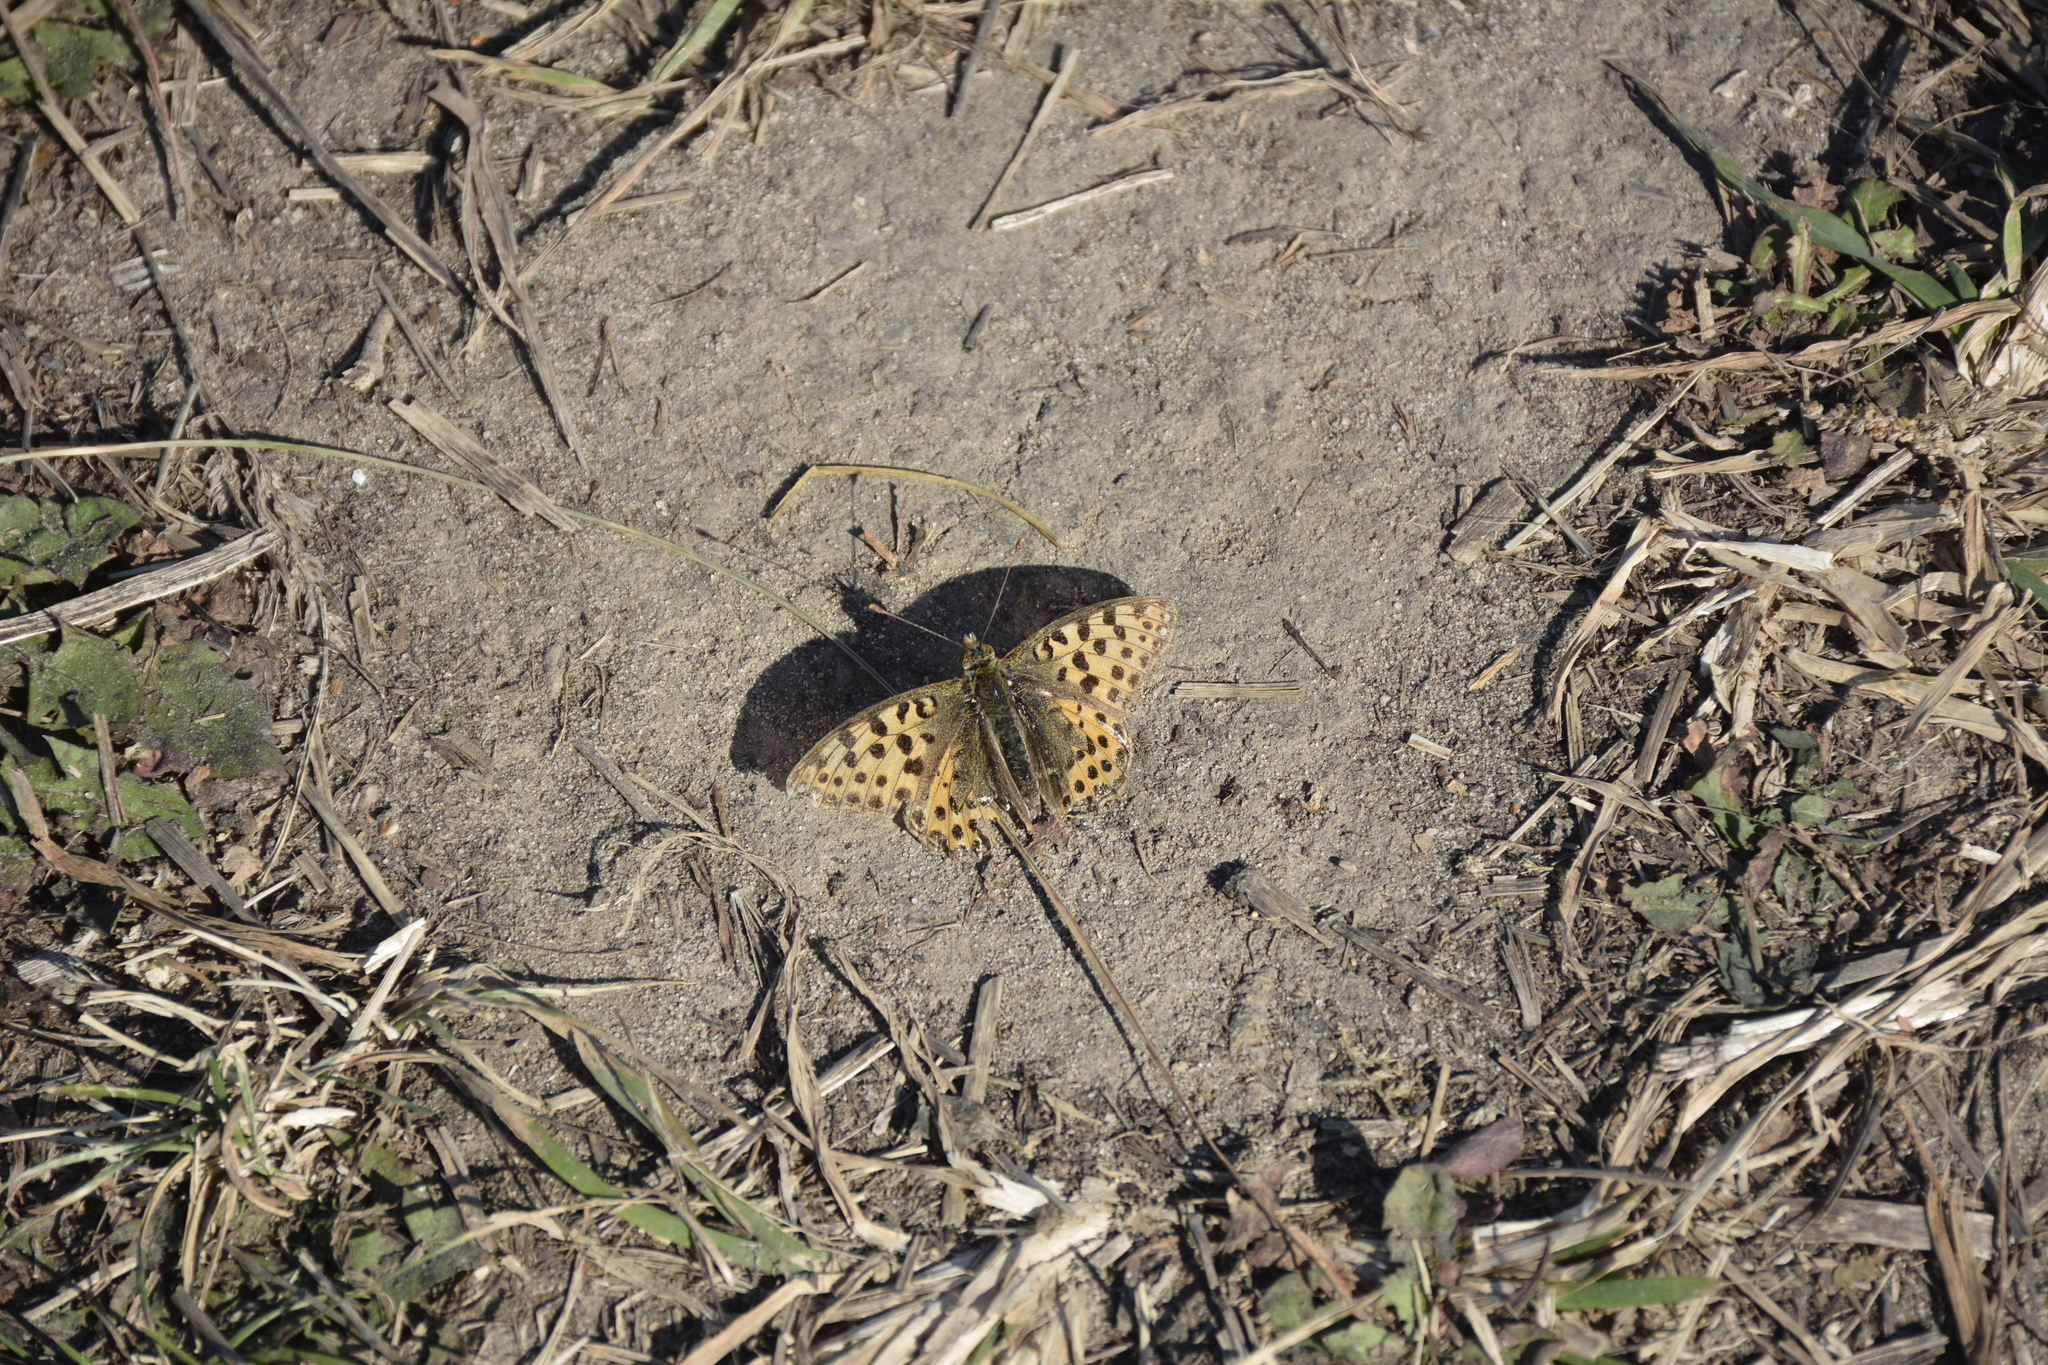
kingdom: Animalia
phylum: Arthropoda
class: Insecta
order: Lepidoptera
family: Nymphalidae
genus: Issoria
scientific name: Issoria lathonia
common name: Queen of spain fritillary
